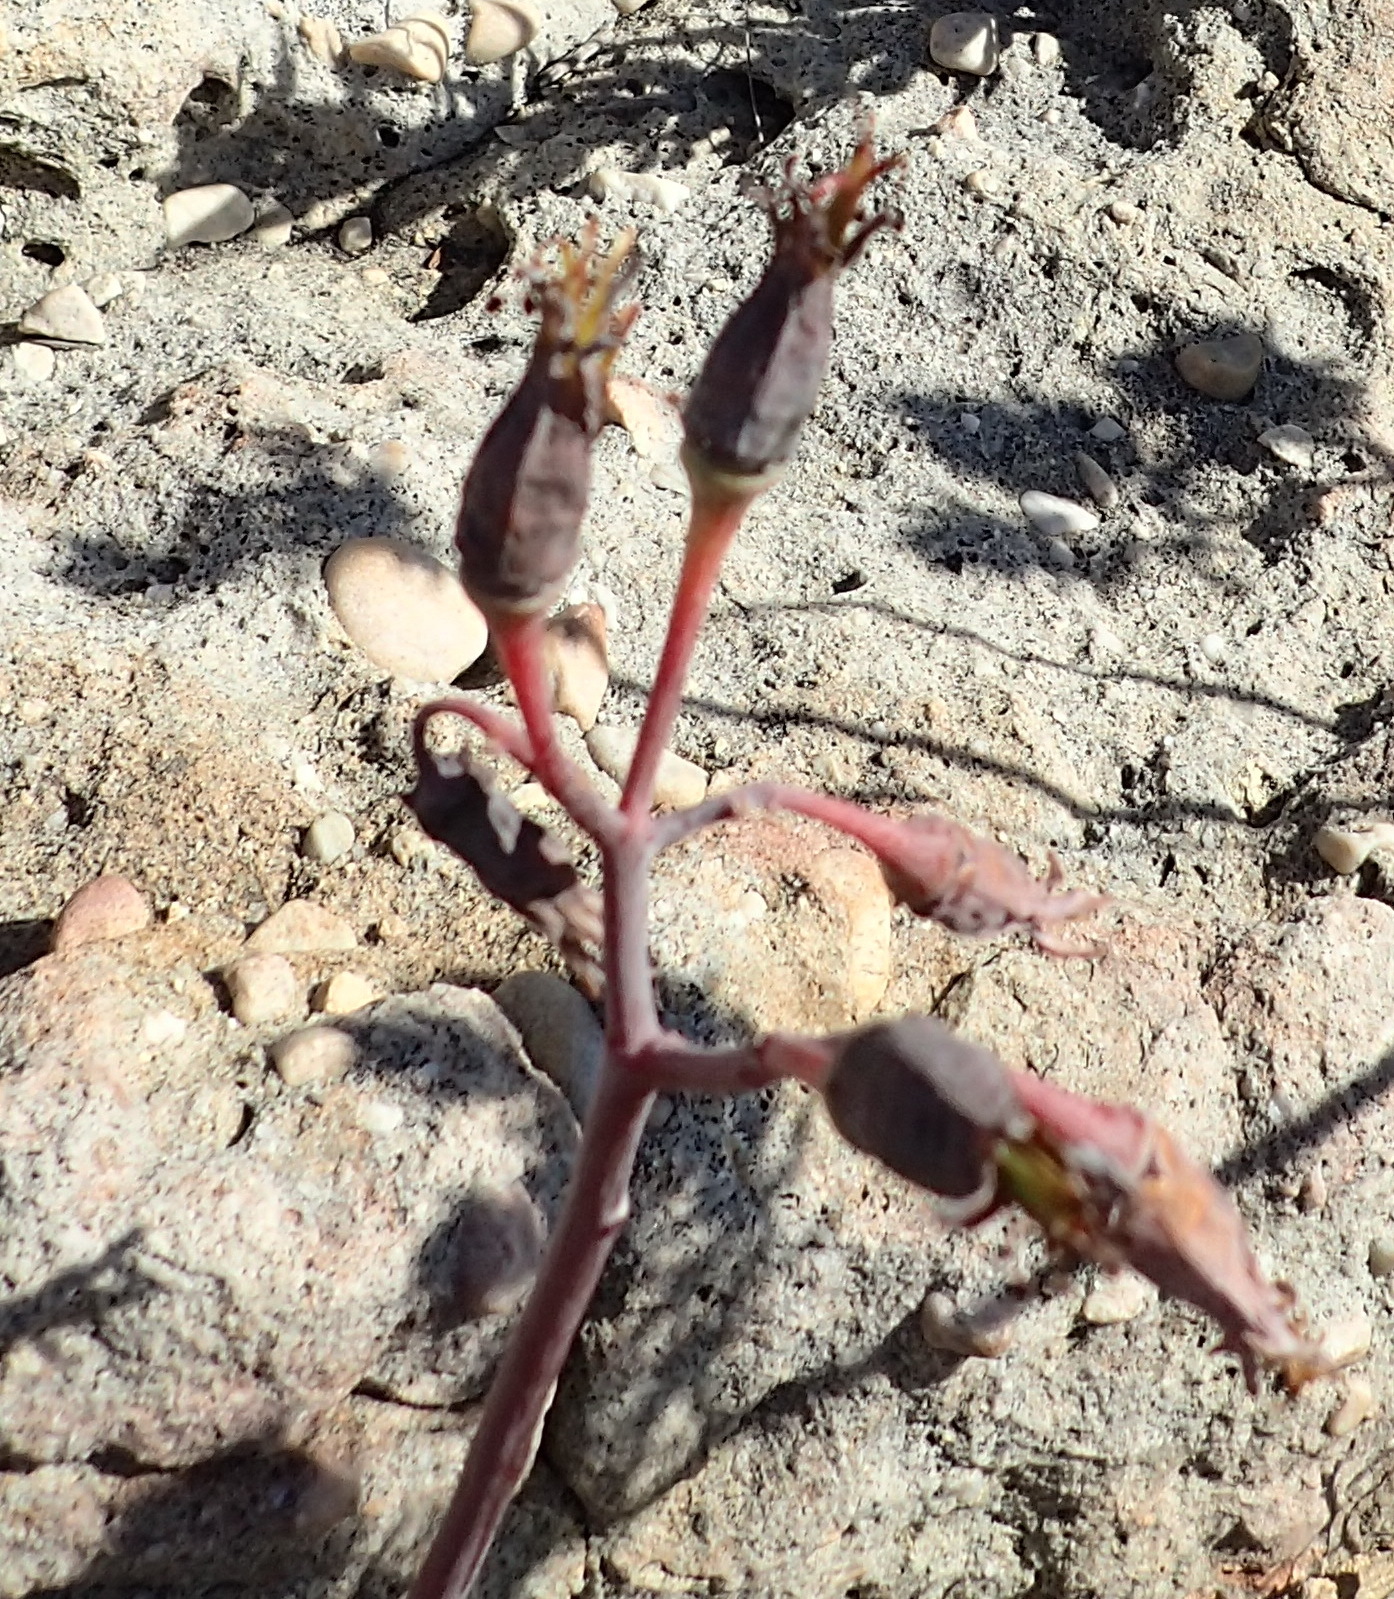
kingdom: Plantae
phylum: Tracheophyta
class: Magnoliopsida
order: Saxifragales
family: Crassulaceae
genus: Cotyledon
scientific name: Cotyledon orbiculata
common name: Pig's ear
